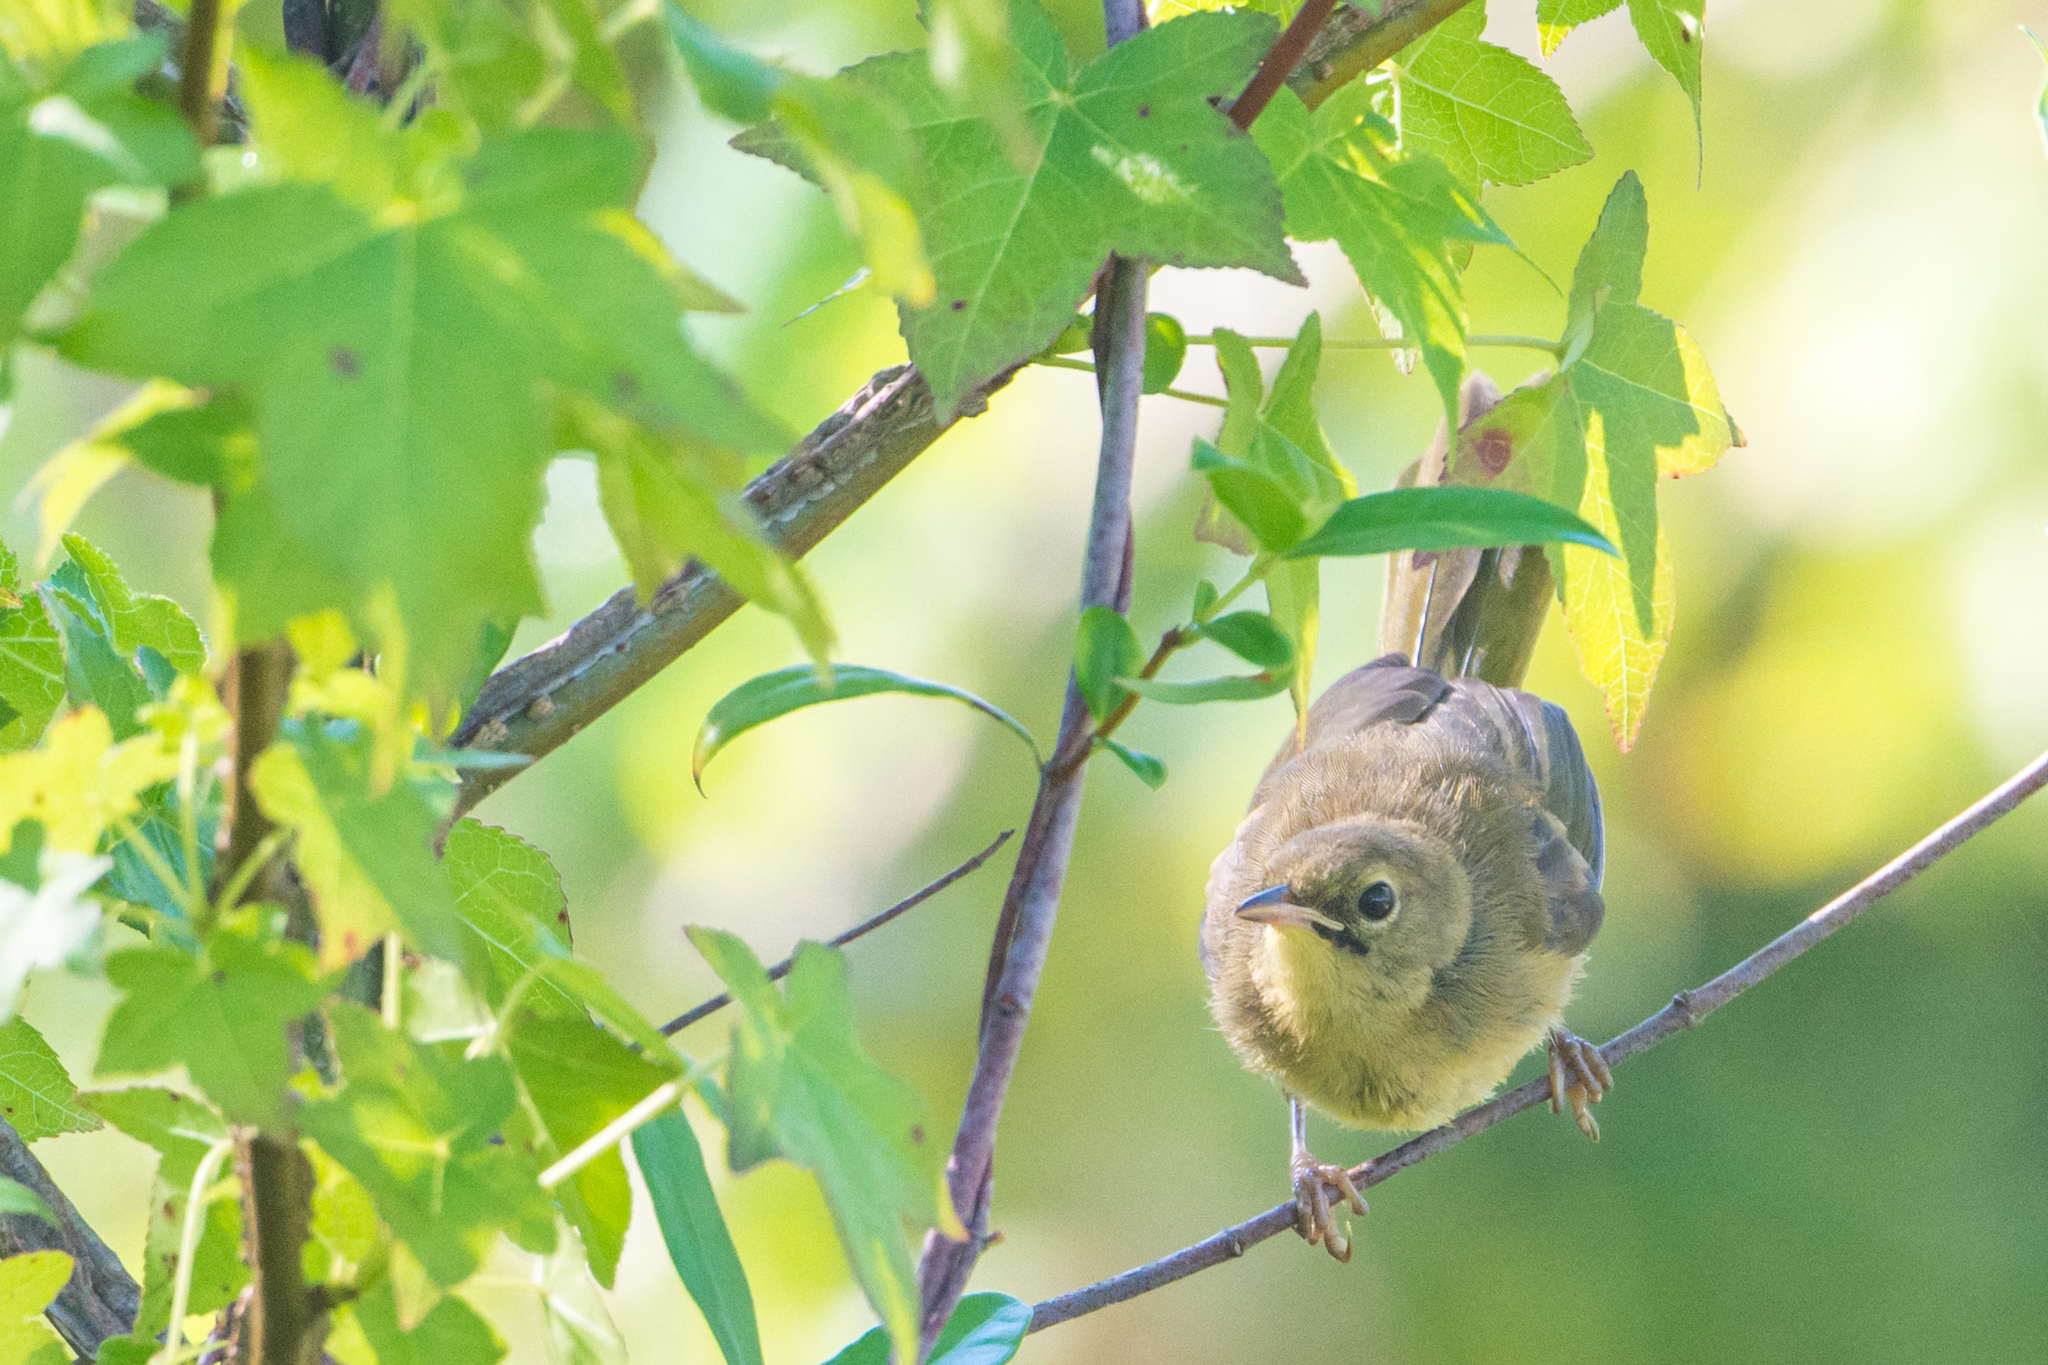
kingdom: Animalia
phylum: Chordata
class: Aves
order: Passeriformes
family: Parulidae
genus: Geothlypis
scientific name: Geothlypis trichas
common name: Common yellowthroat
